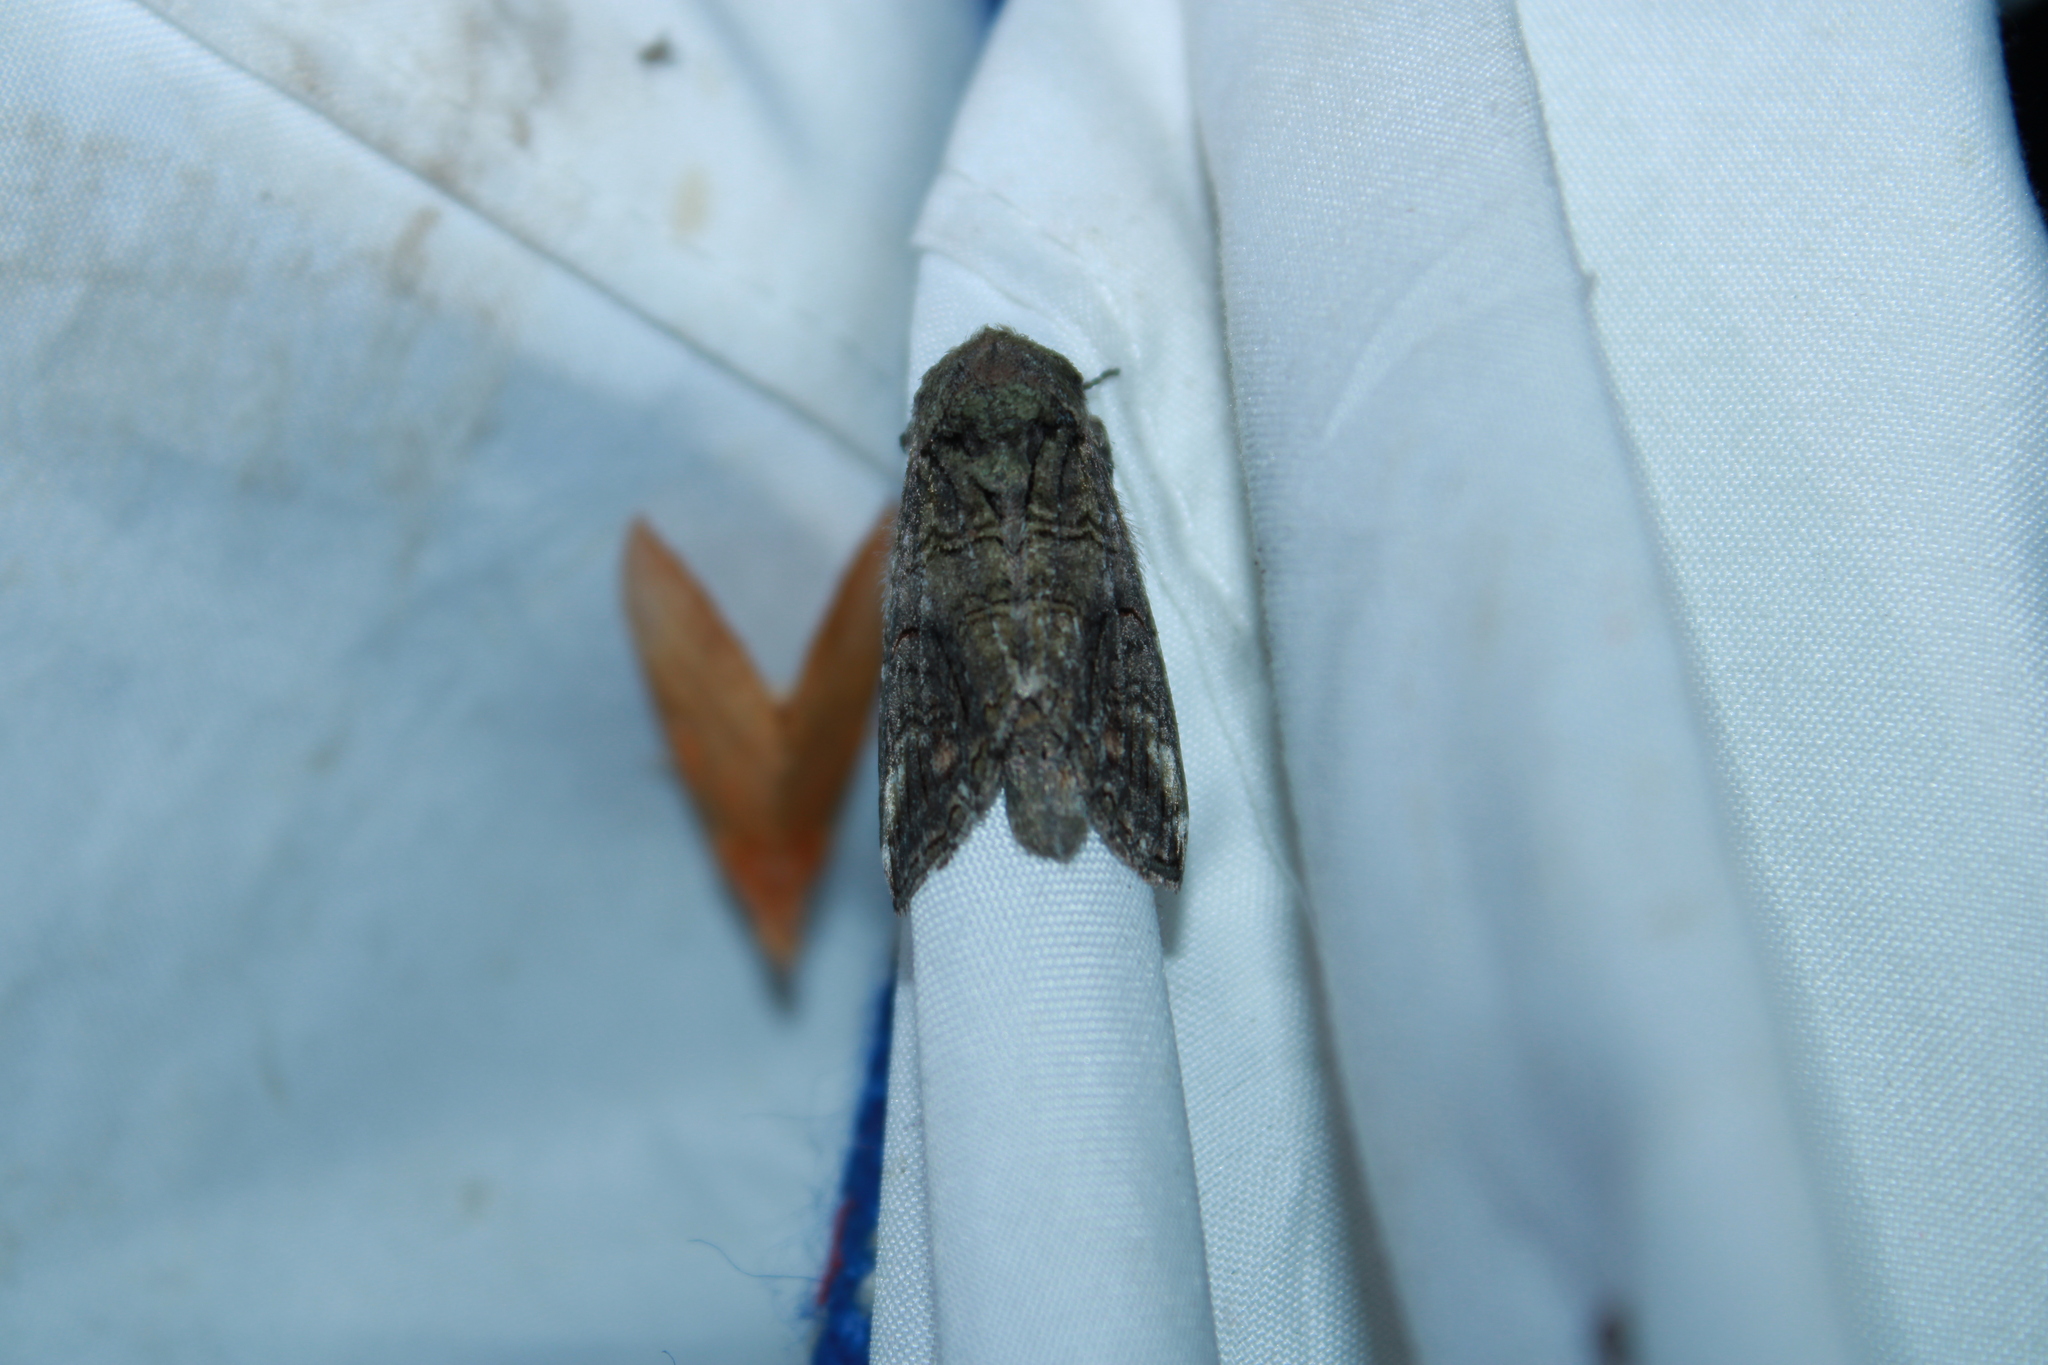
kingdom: Animalia
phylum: Arthropoda
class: Insecta
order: Lepidoptera
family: Notodontidae
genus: Heterocampa
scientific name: Heterocampa obliqua
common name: Oblique heterocampa
